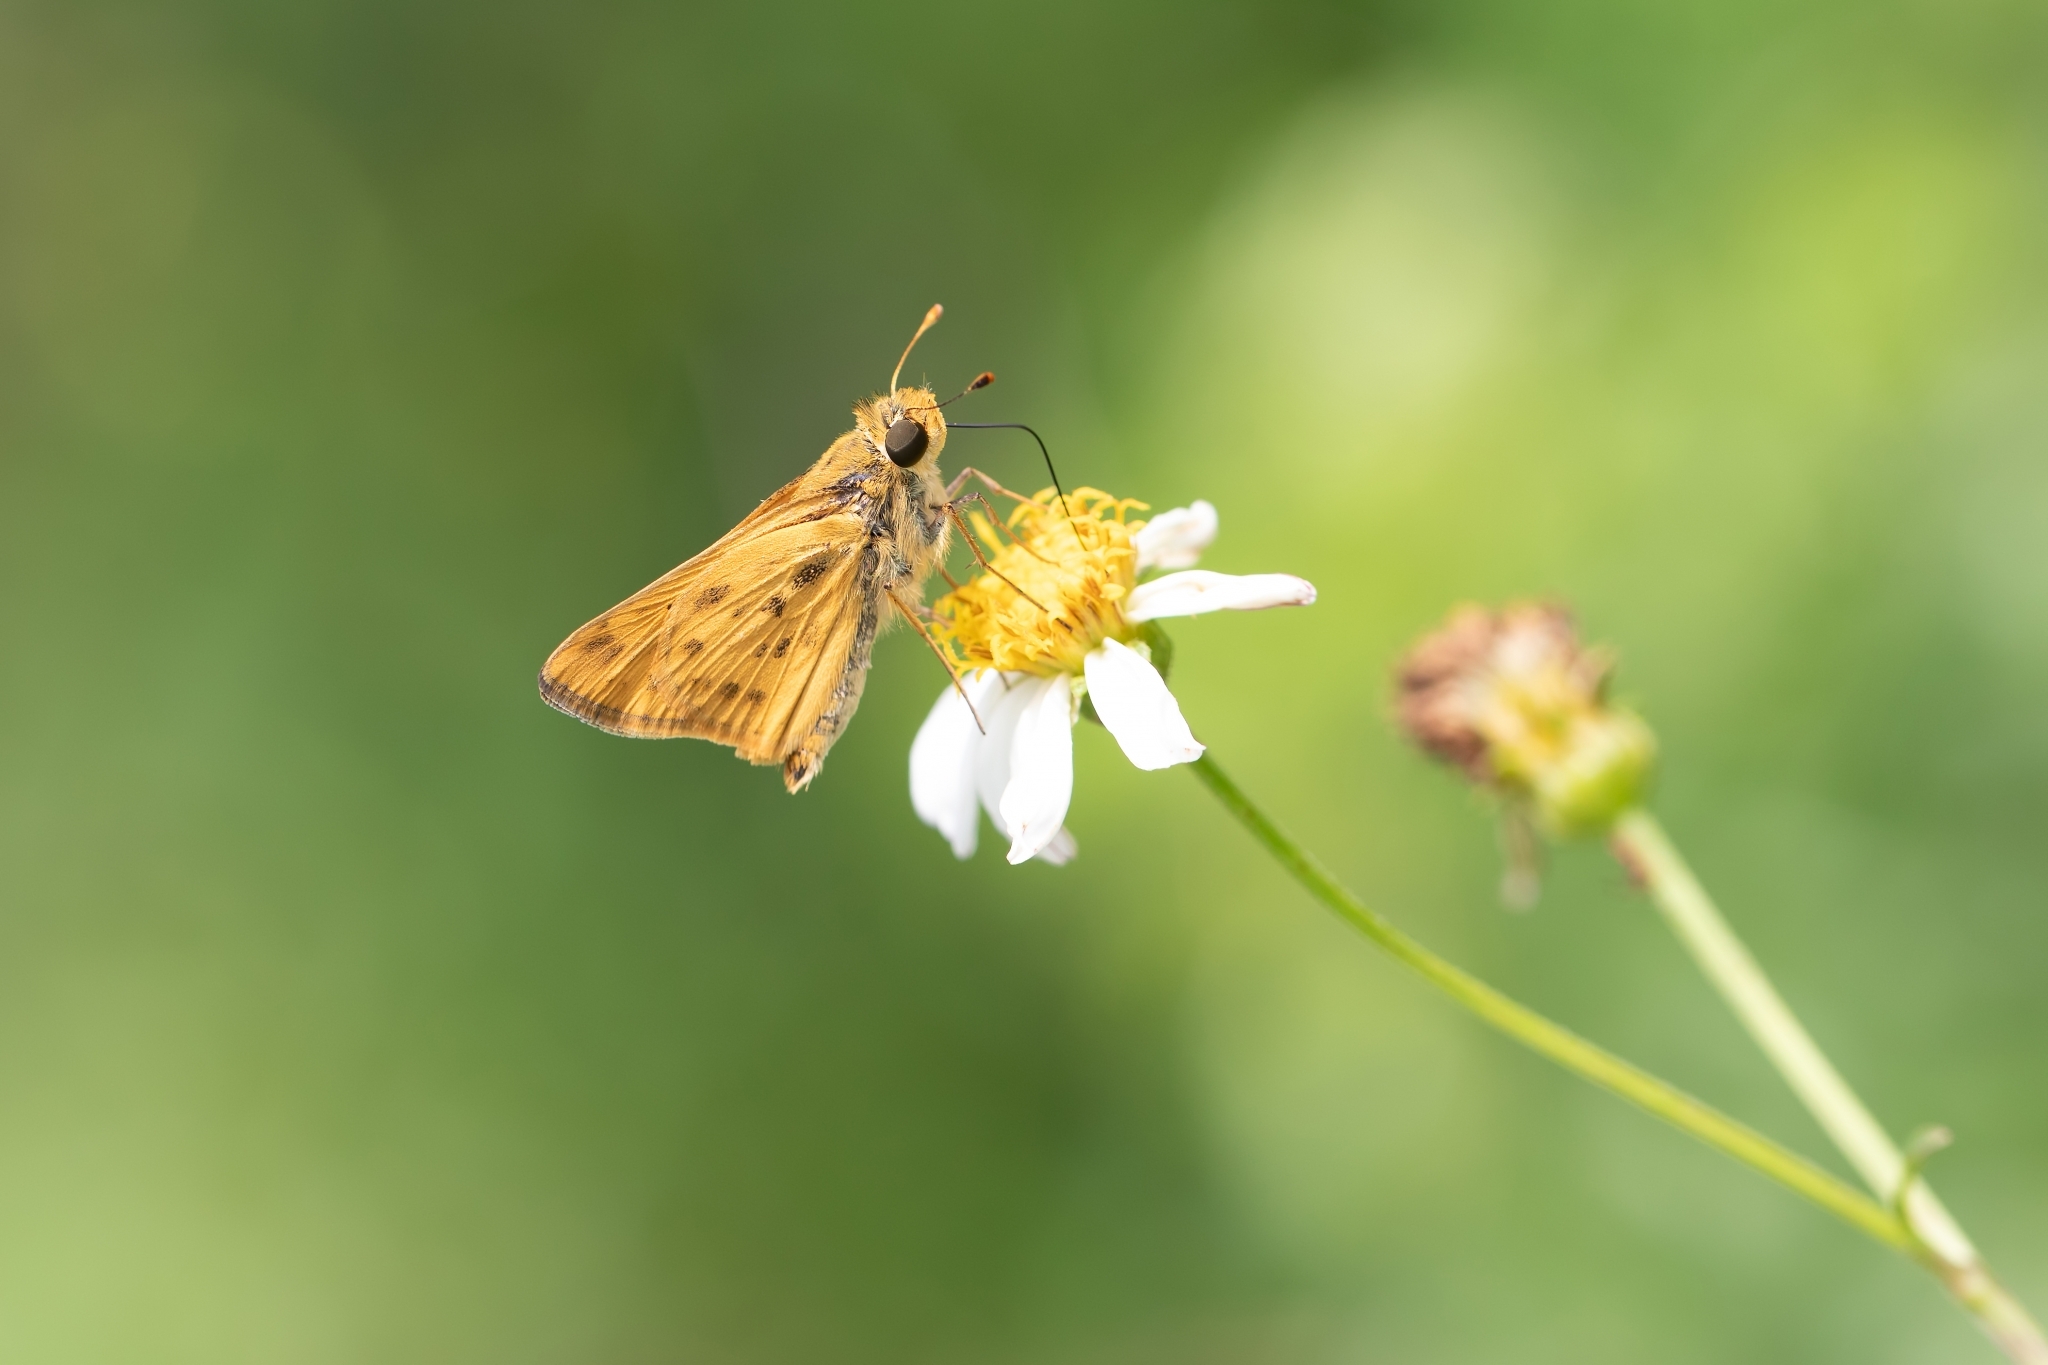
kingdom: Animalia
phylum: Arthropoda
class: Insecta
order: Lepidoptera
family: Hesperiidae
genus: Hylephila
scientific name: Hylephila phyleus
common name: Fiery skipper
